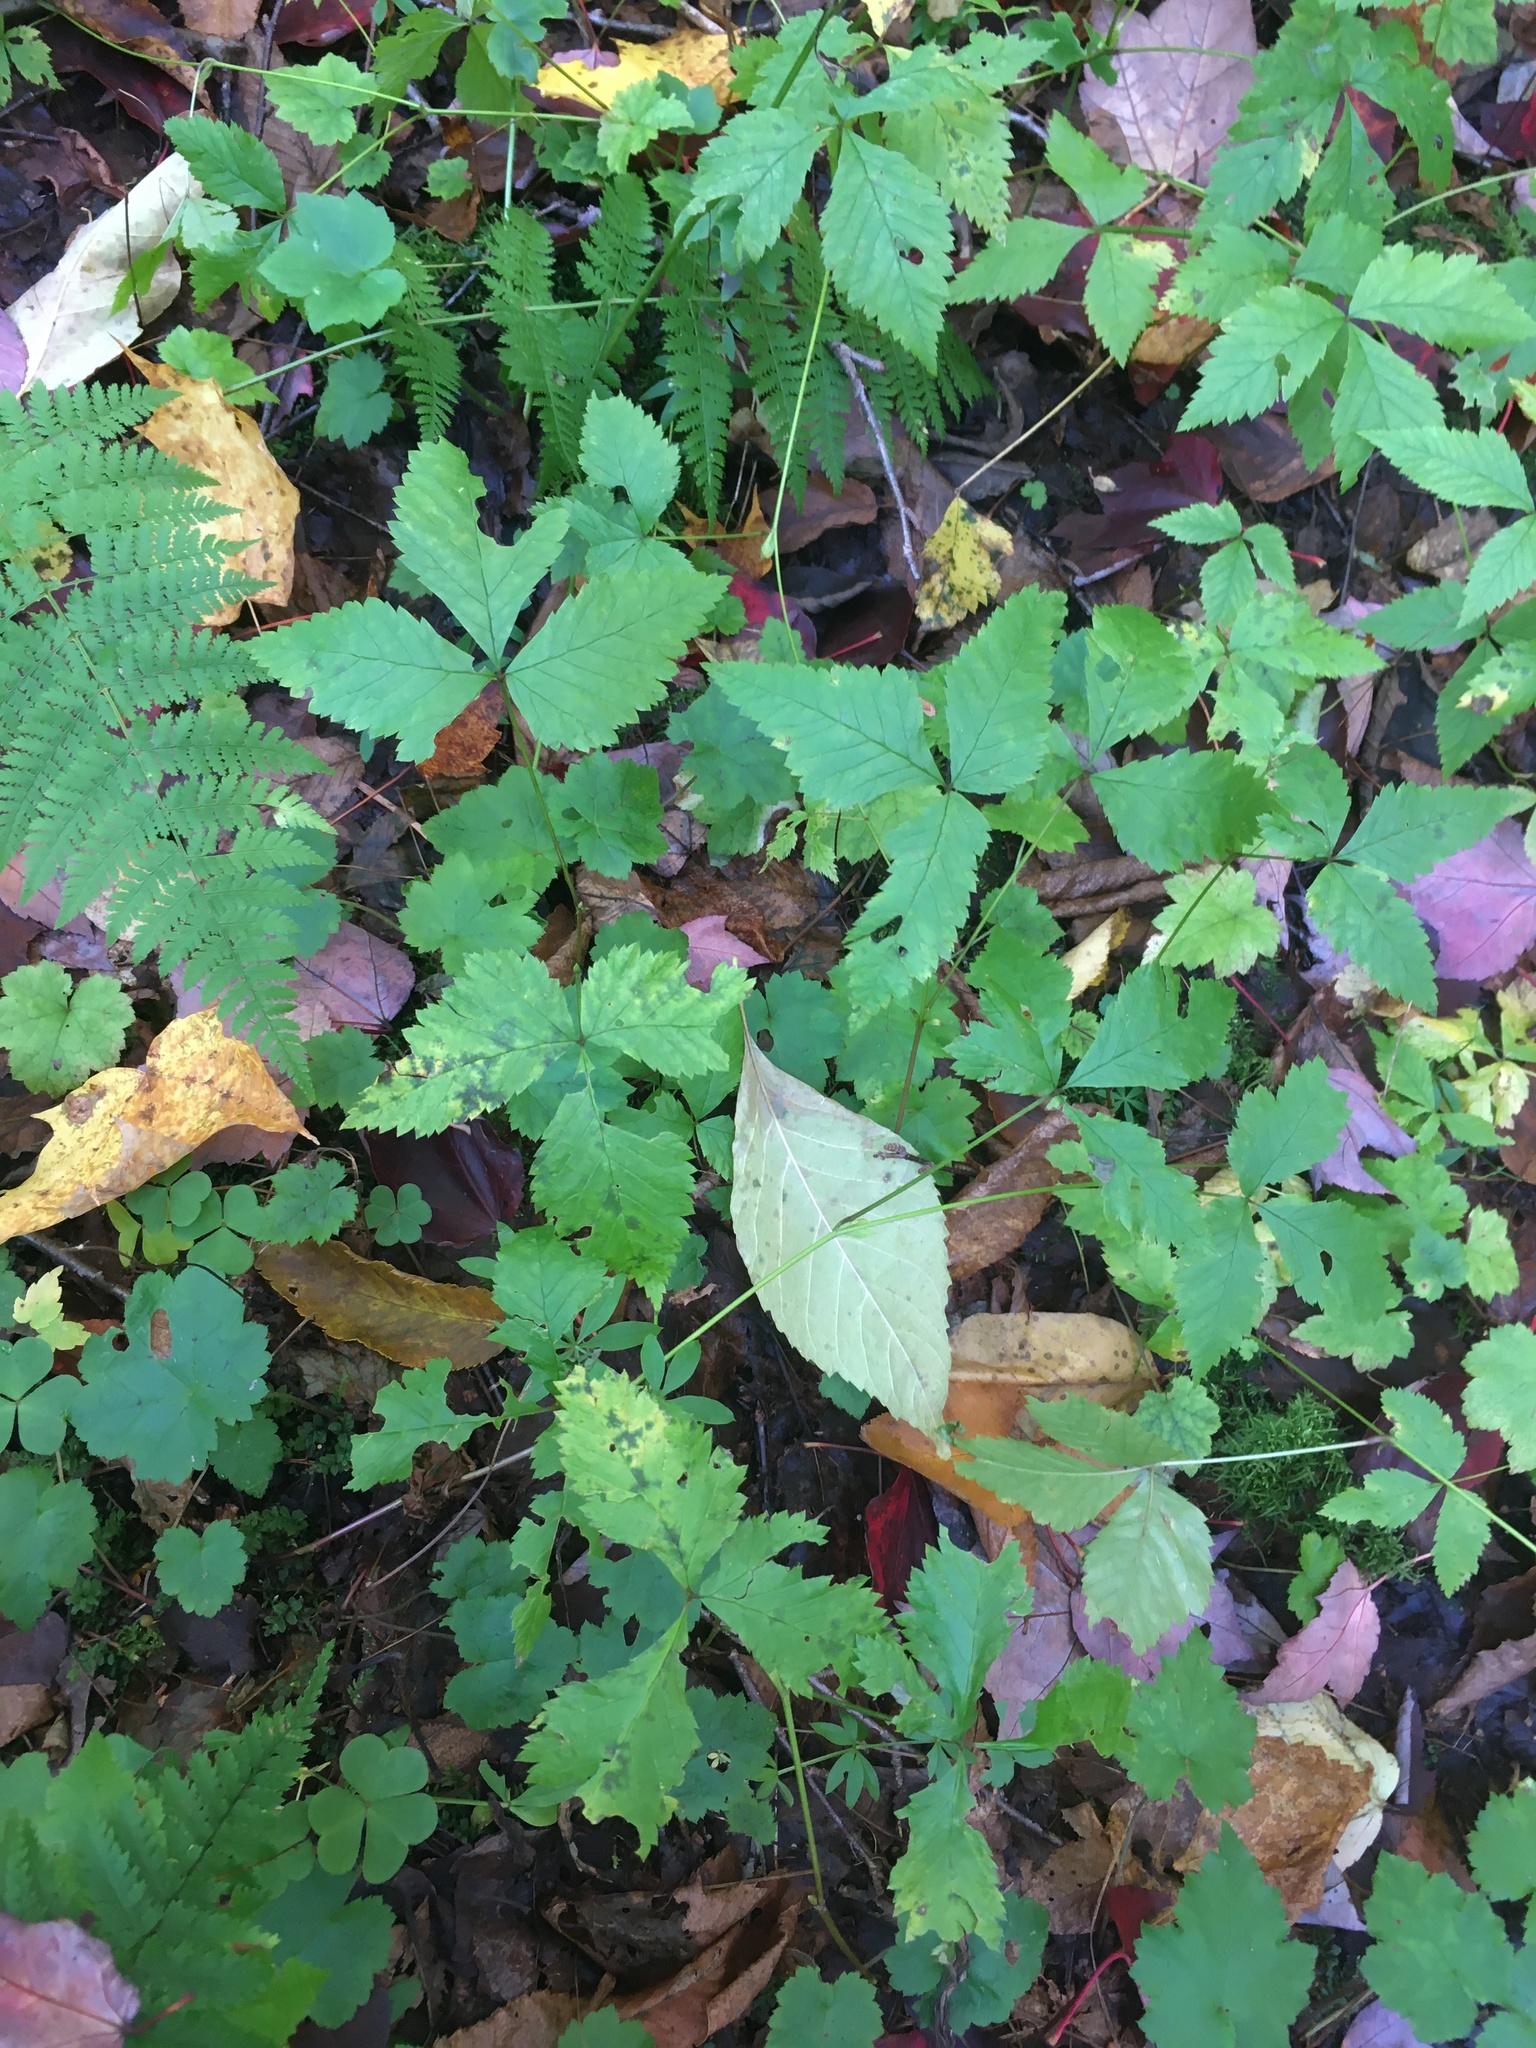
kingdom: Plantae
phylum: Tracheophyta
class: Magnoliopsida
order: Rosales
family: Rosaceae
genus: Rubus
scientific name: Rubus pubescens
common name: Dwarf raspberry
